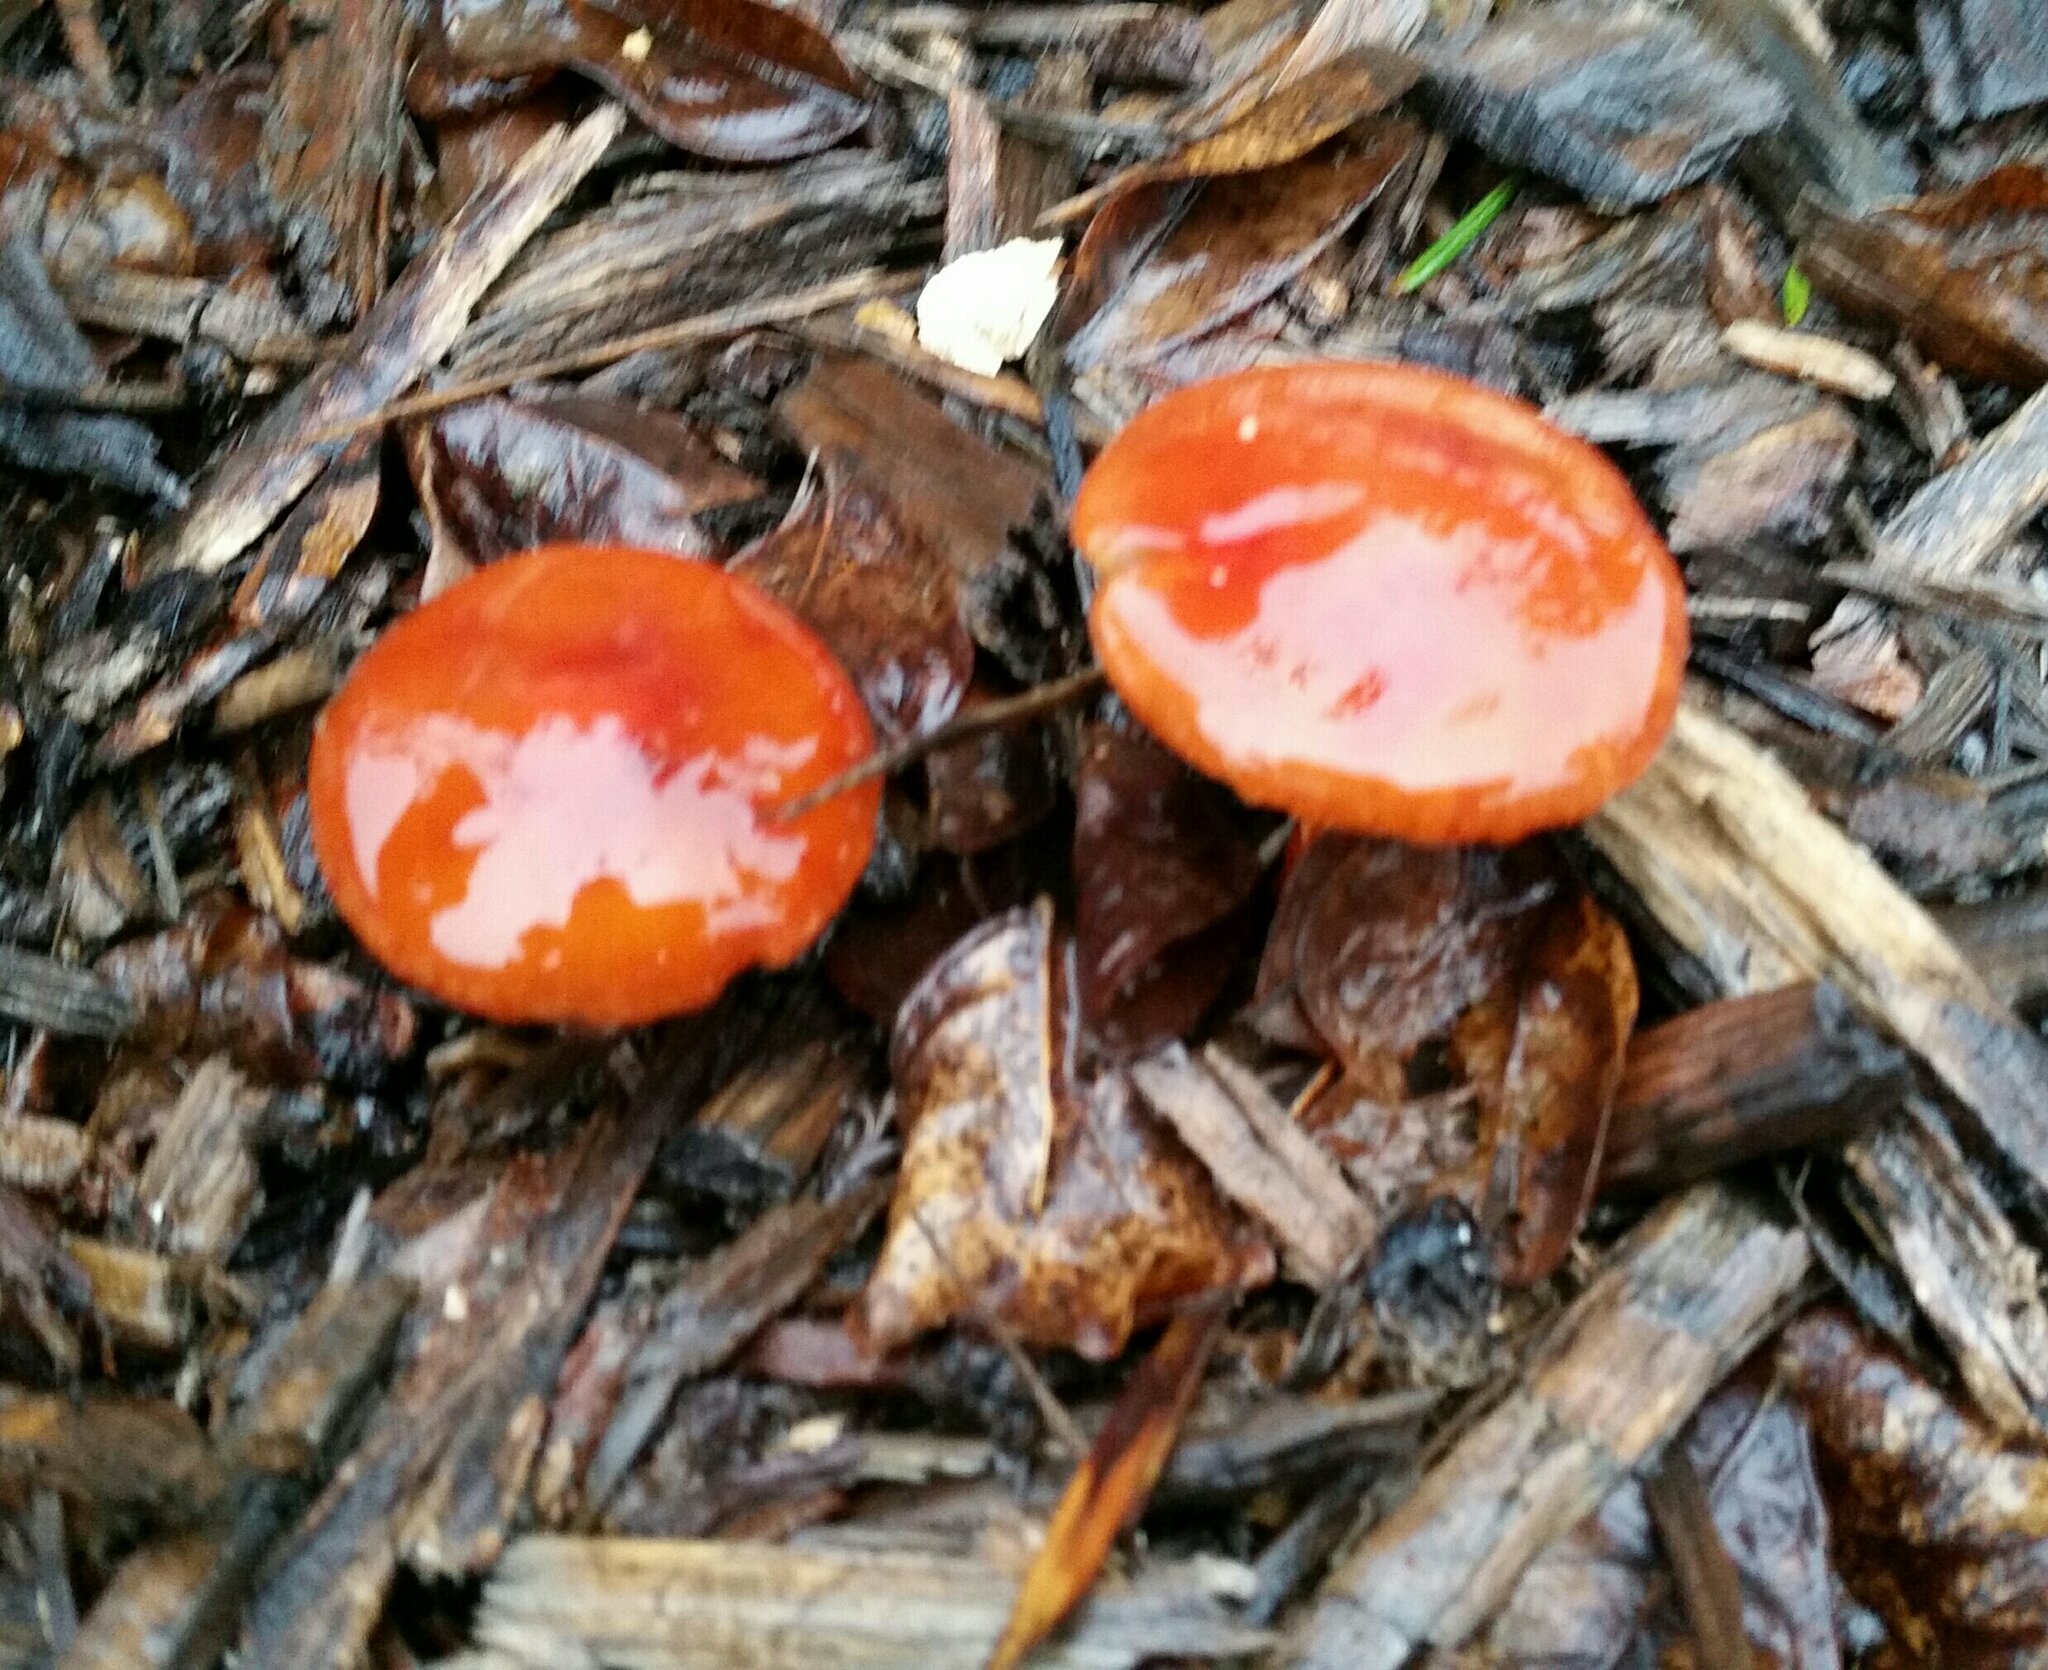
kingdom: Fungi
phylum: Basidiomycota
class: Agaricomycetes
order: Agaricales
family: Strophariaceae
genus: Leratiomyces
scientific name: Leratiomyces ceres
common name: Redlead roundhead
